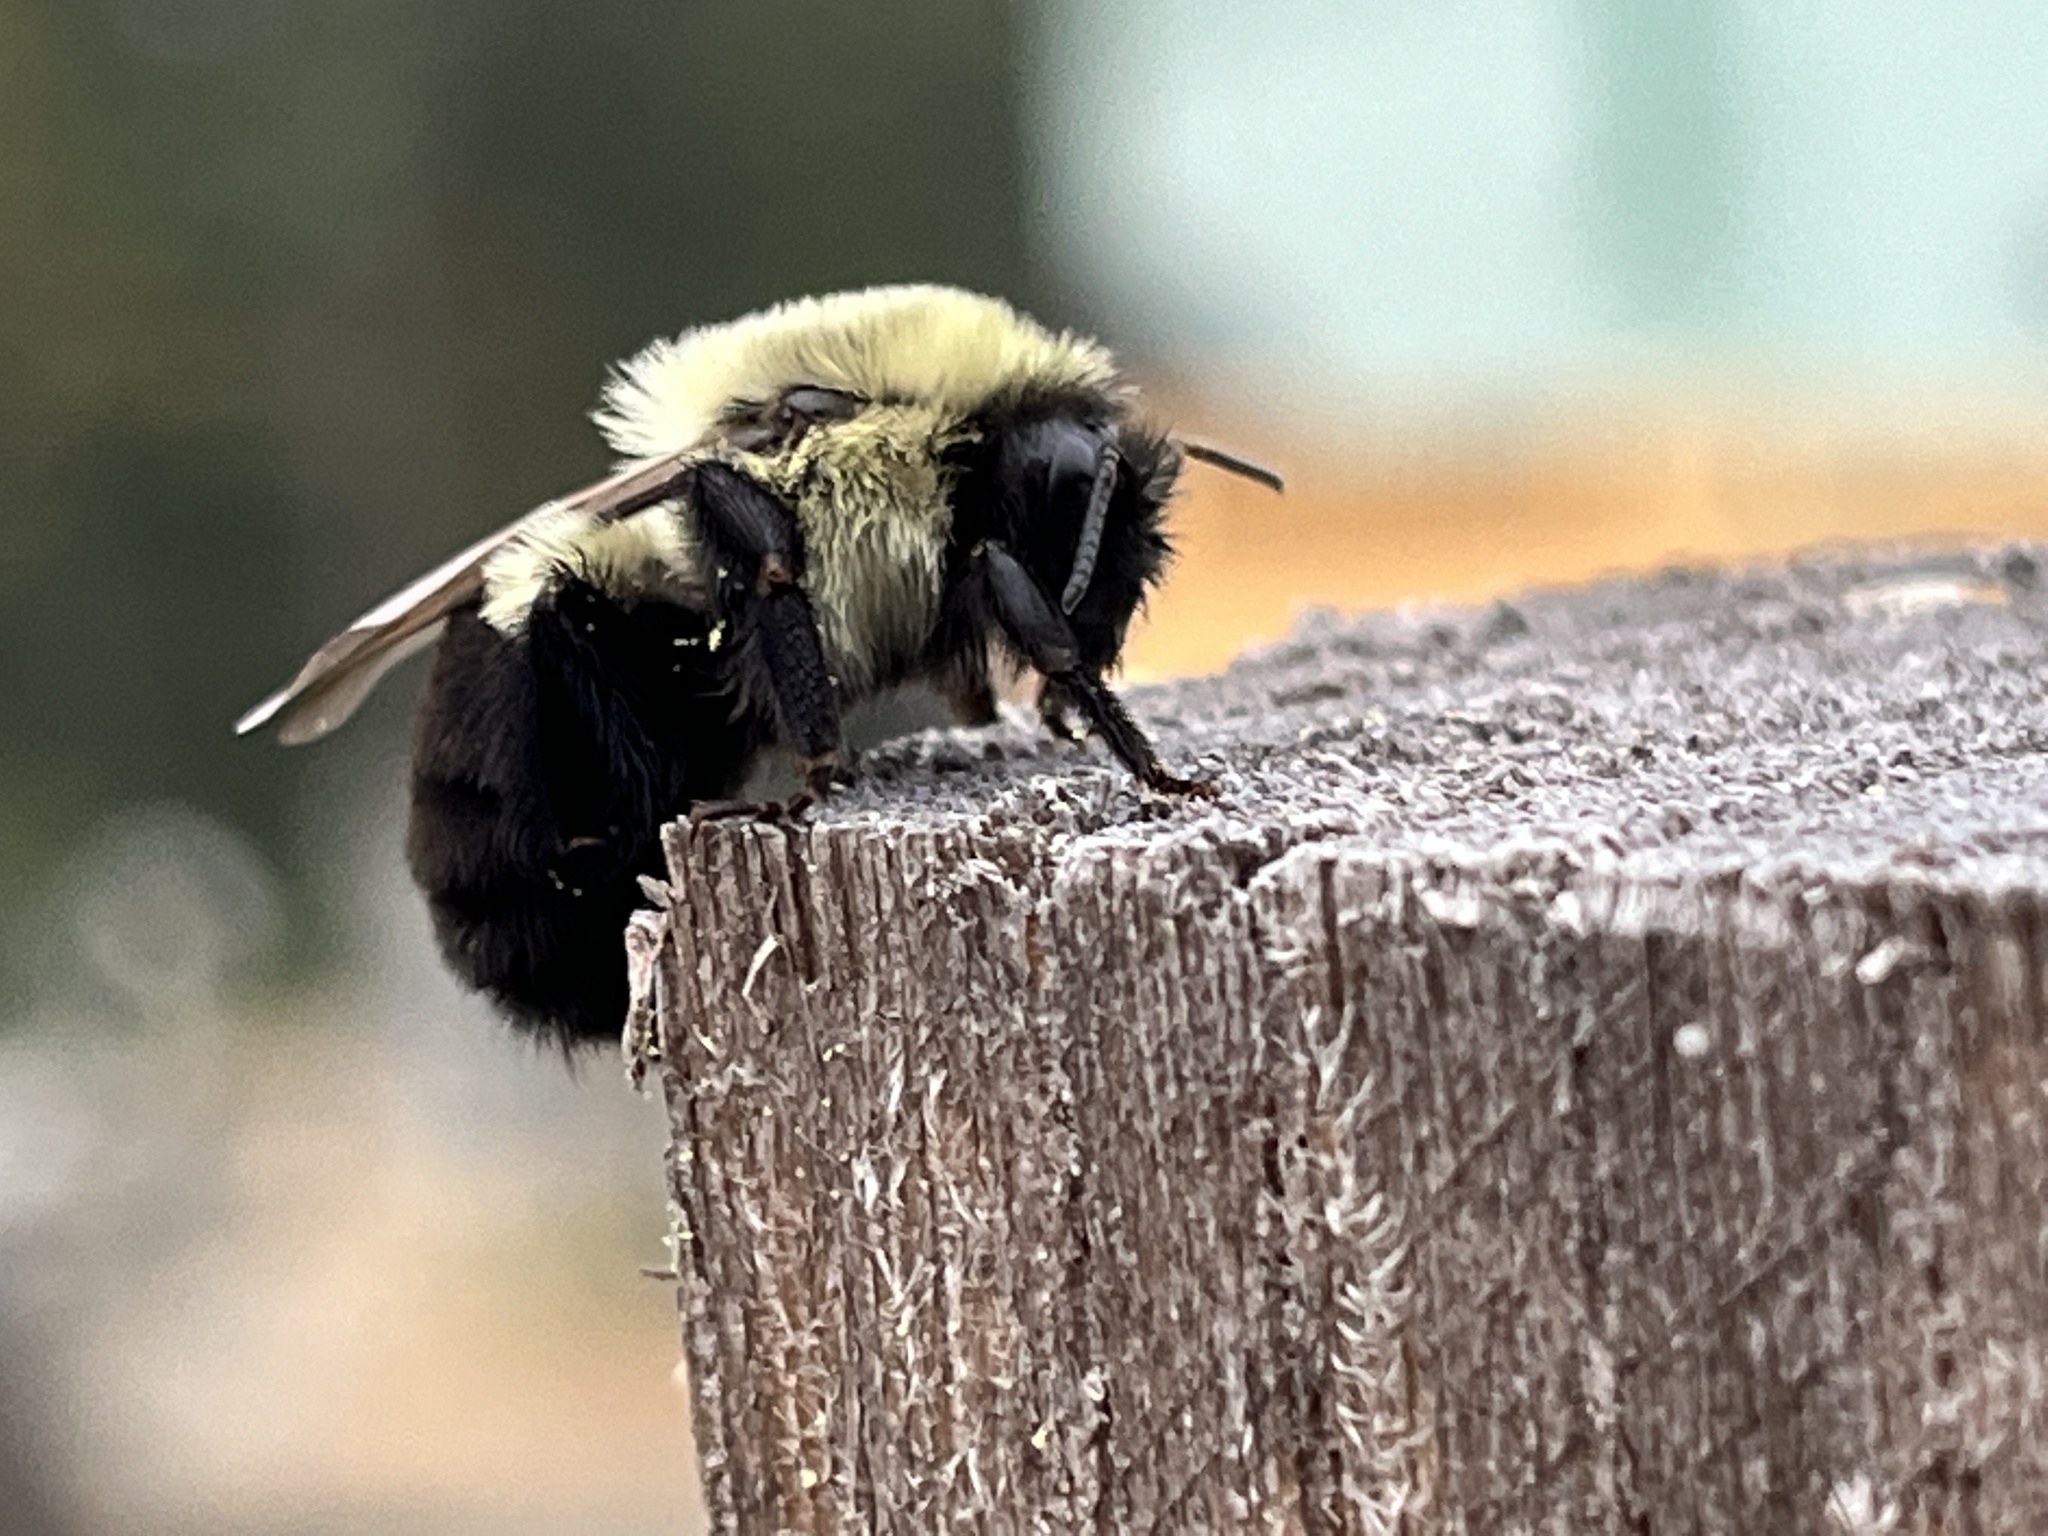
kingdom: Animalia
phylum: Arthropoda
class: Insecta
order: Hymenoptera
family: Apidae
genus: Bombus
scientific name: Bombus impatiens
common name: Common eastern bumble bee
